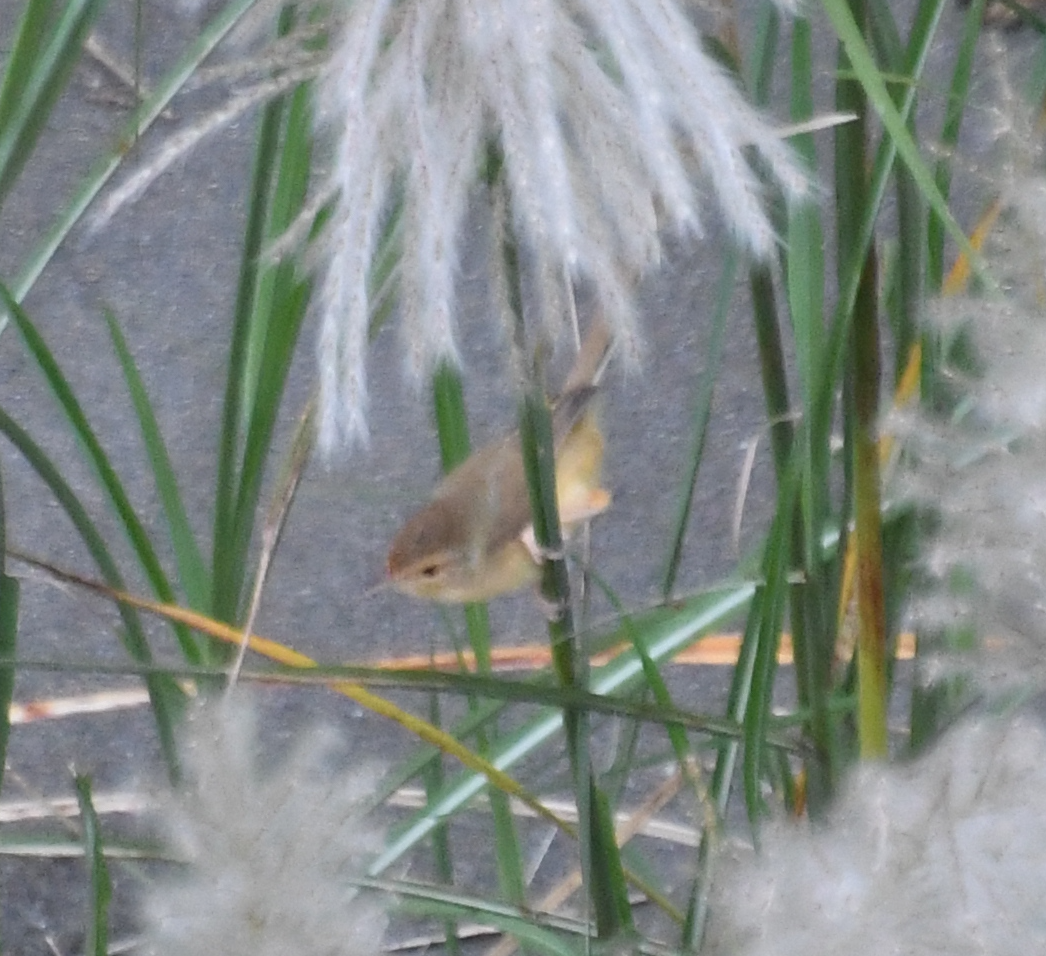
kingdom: Animalia
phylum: Chordata
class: Aves
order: Passeriformes
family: Cisticolidae
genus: Prinia
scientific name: Prinia inornata
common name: Plain prinia
